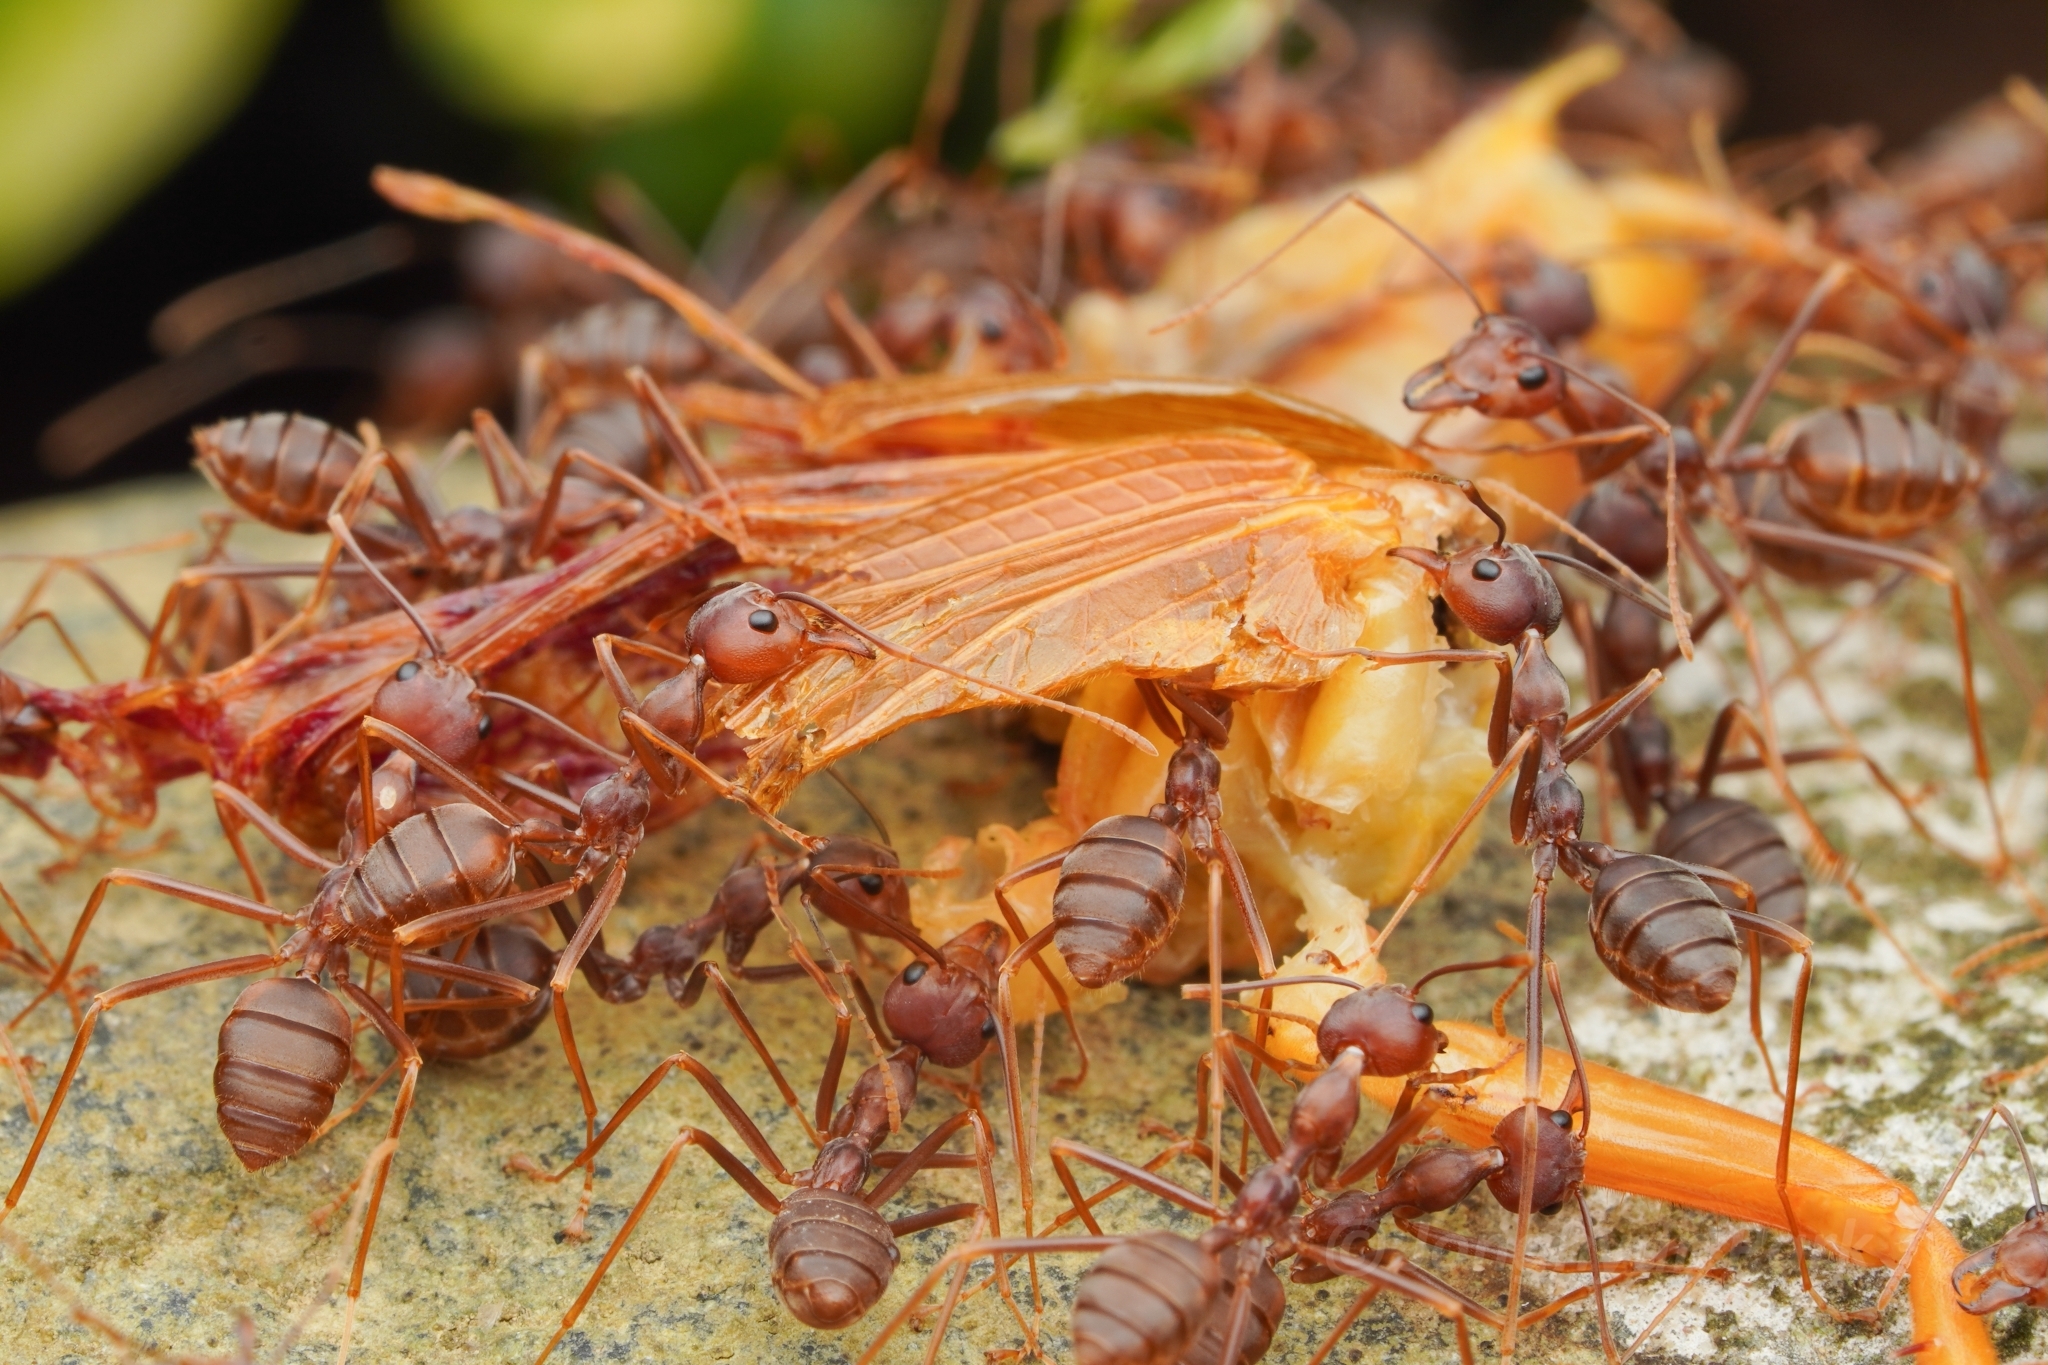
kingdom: Animalia
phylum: Arthropoda
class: Insecta
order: Hymenoptera
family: Formicidae
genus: Oecophylla
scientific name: Oecophylla smaragdina
